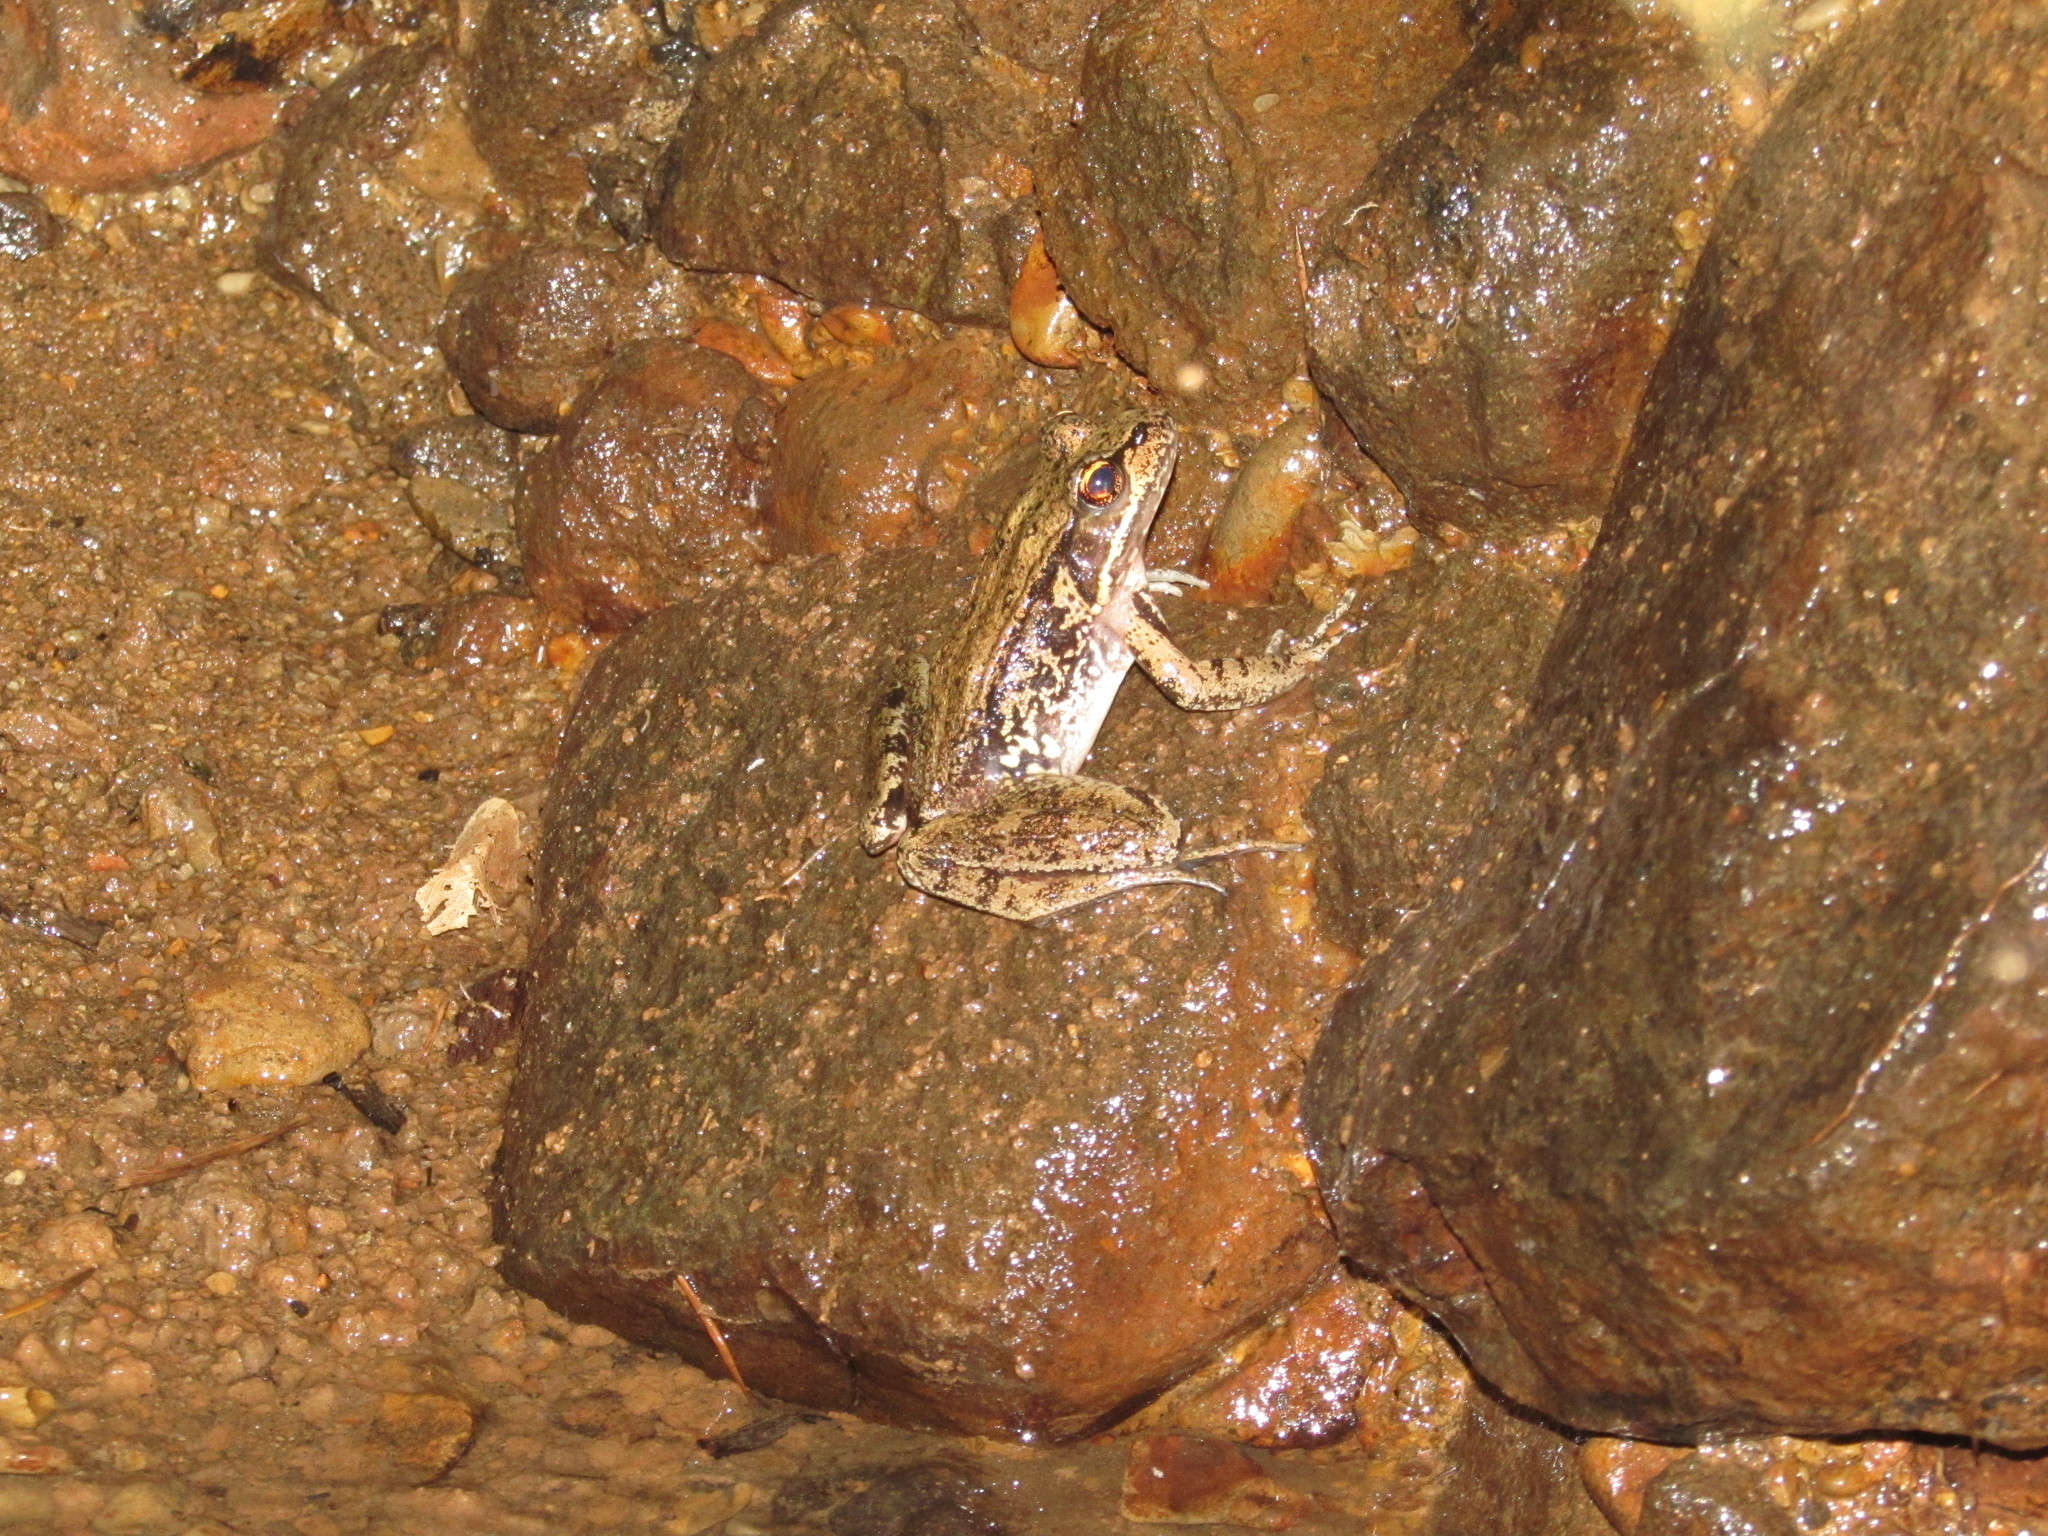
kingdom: Animalia
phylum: Chordata
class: Amphibia
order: Anura
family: Ranidae
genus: Rana
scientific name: Rana aurora
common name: Red-legged frog
